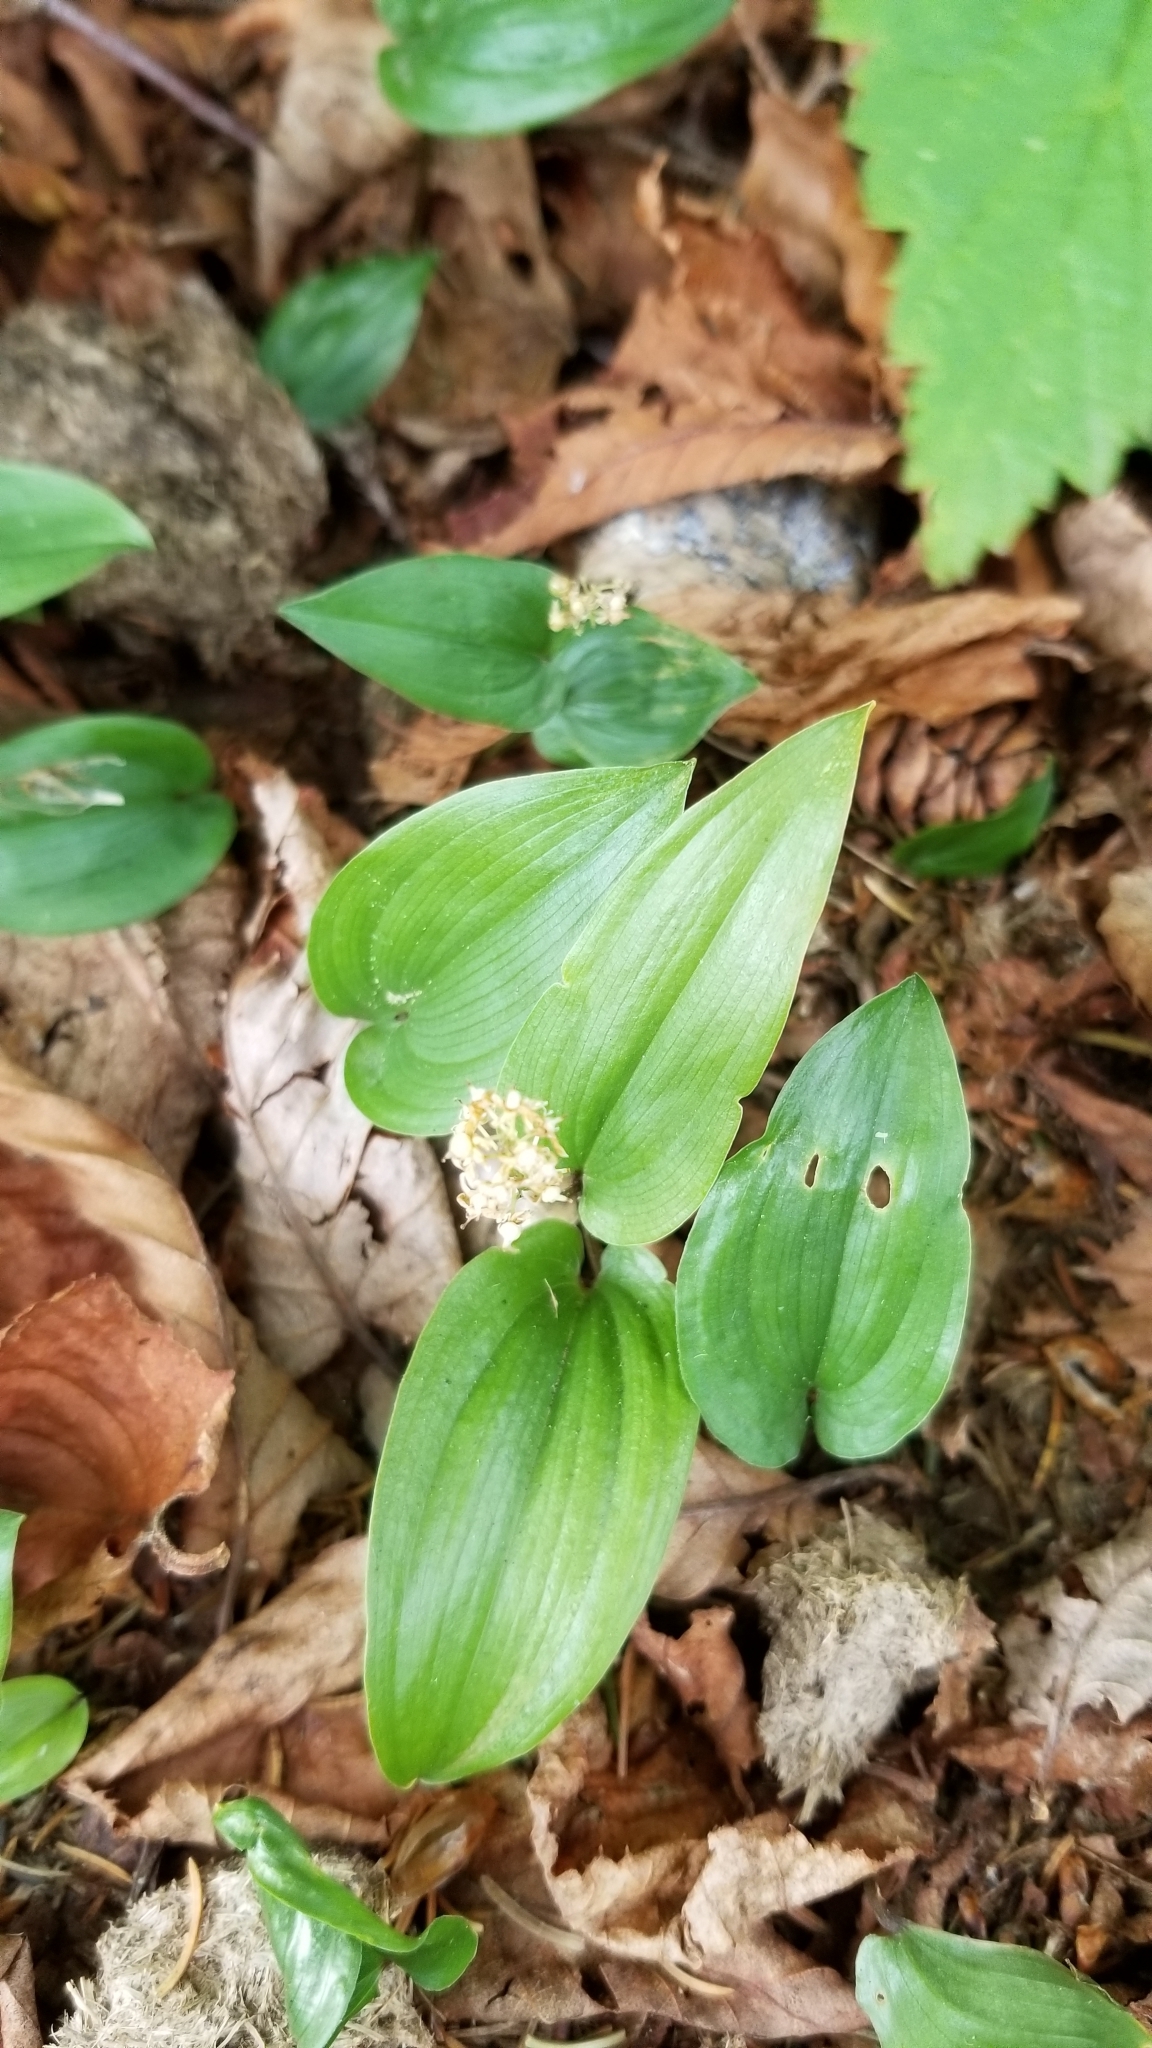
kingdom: Plantae
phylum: Tracheophyta
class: Liliopsida
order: Asparagales
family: Asparagaceae
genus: Maianthemum
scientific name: Maianthemum canadense
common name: False lily-of-the-valley
